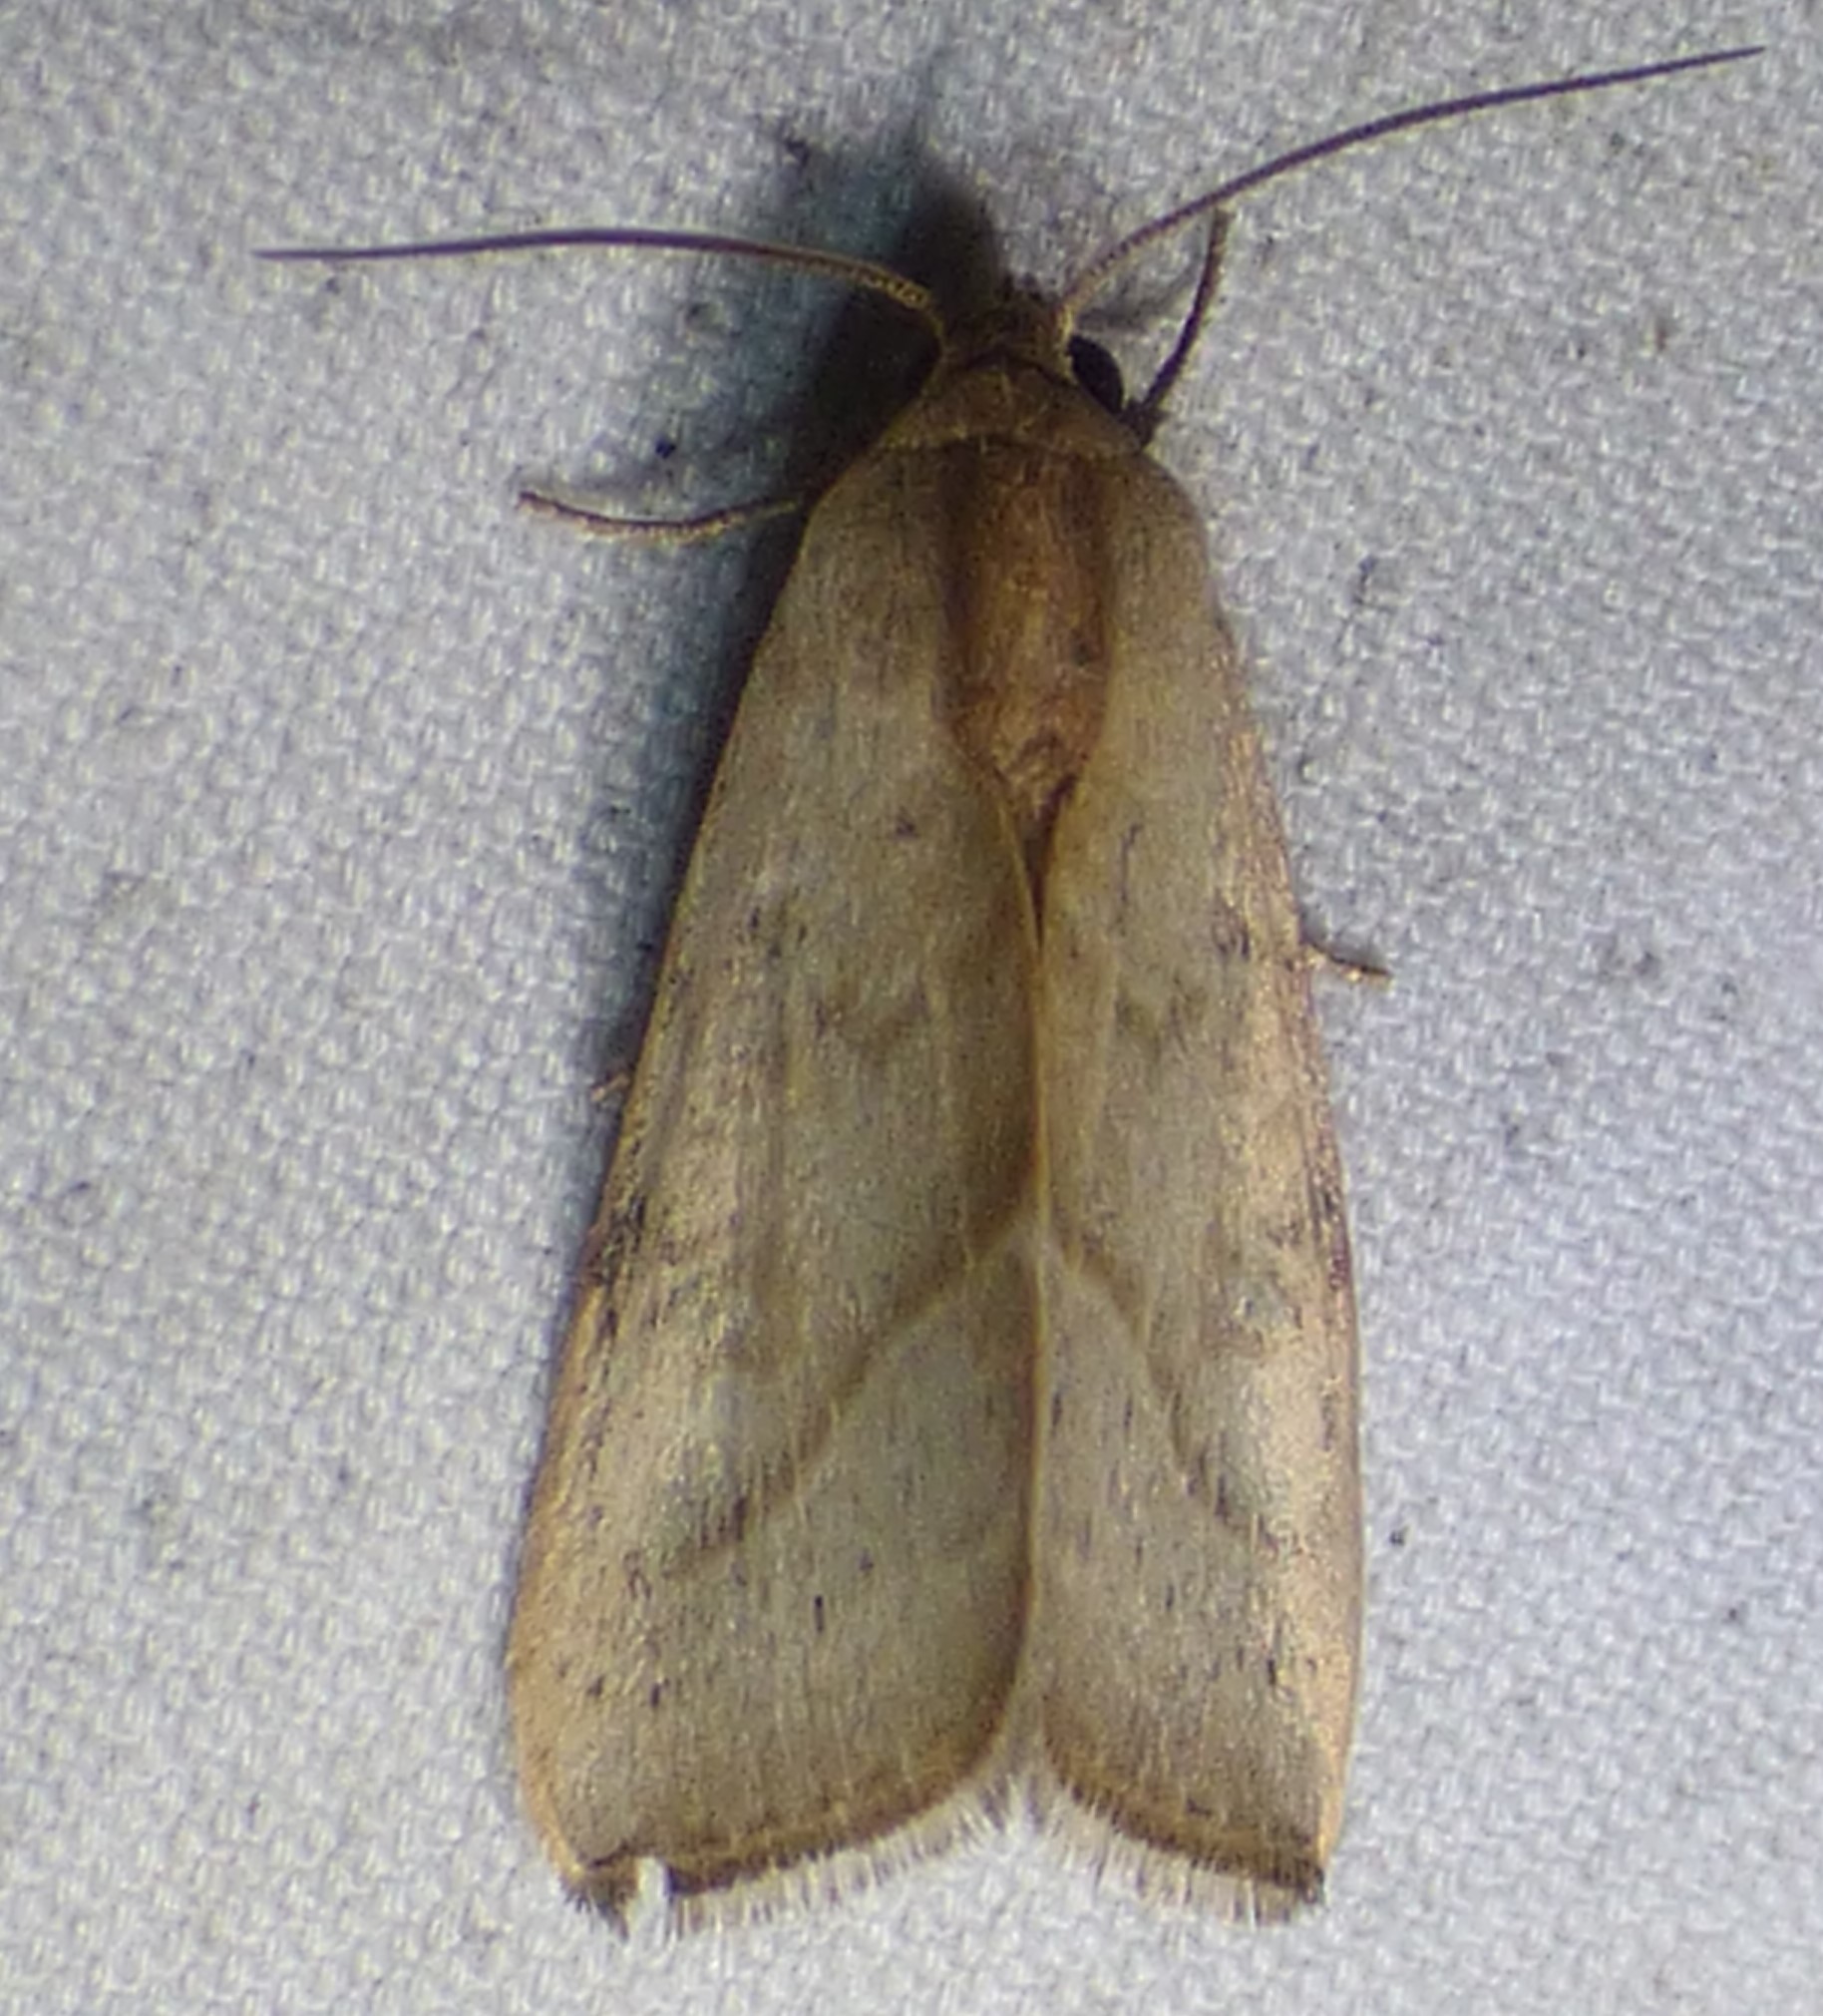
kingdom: Animalia
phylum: Arthropoda
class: Insecta
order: Lepidoptera
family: Noctuidae
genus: Galgula
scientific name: Galgula partita
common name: Wedgeling
